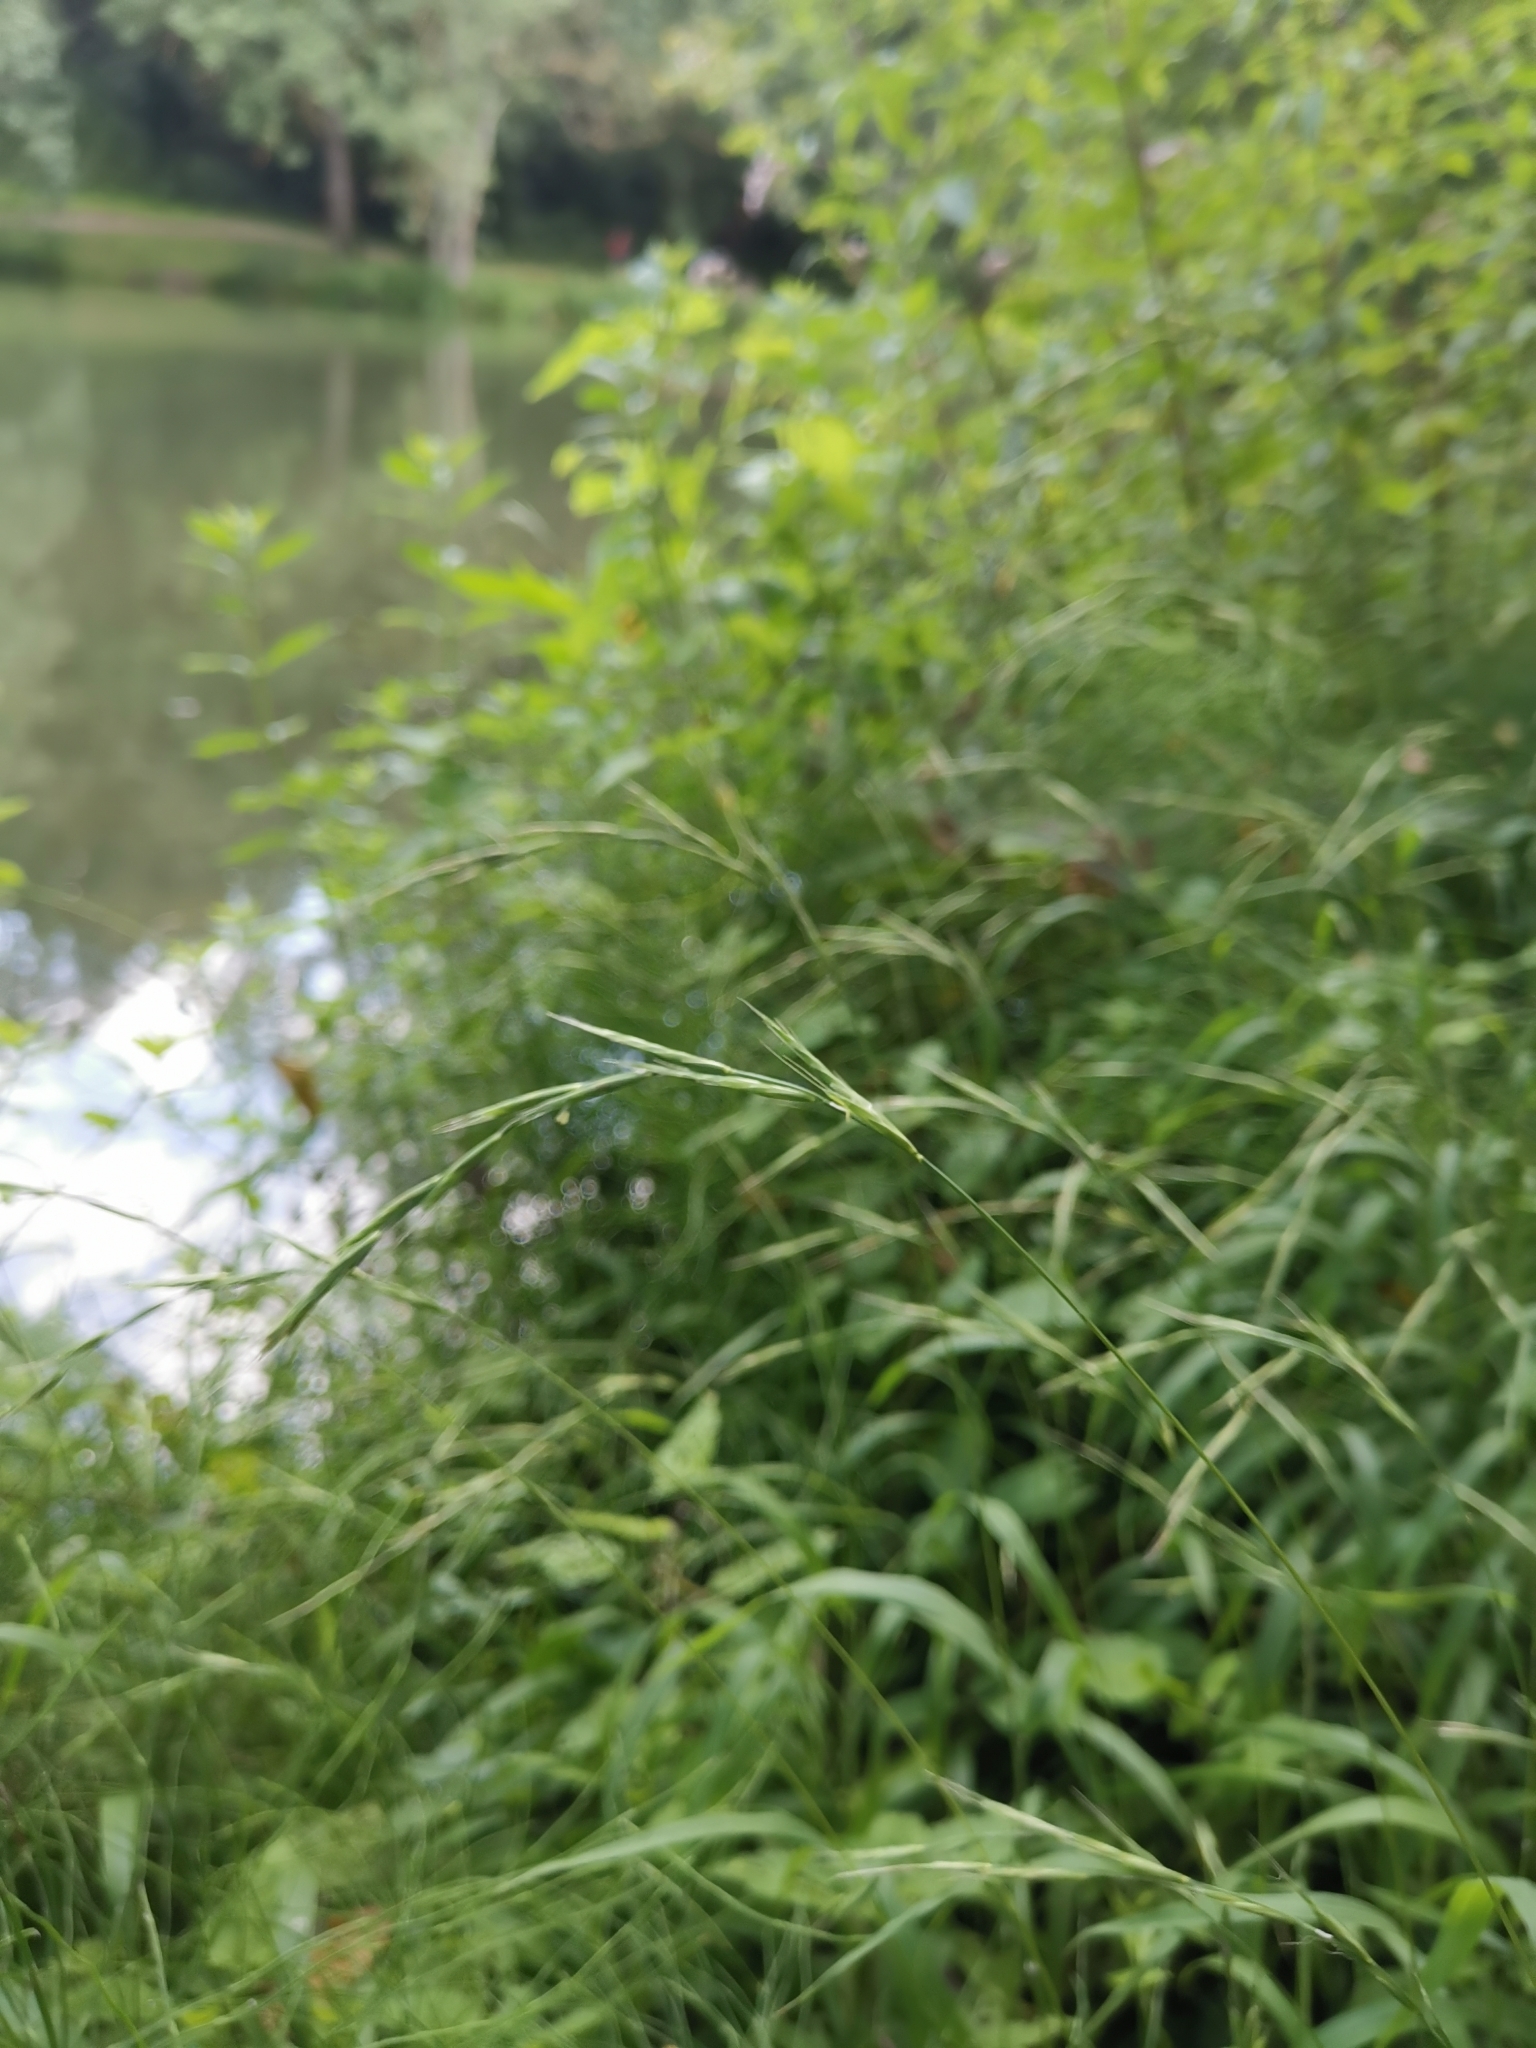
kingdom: Plantae
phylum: Tracheophyta
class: Liliopsida
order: Poales
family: Poaceae
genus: Brachypodium
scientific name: Brachypodium sylvaticum
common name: False-brome
